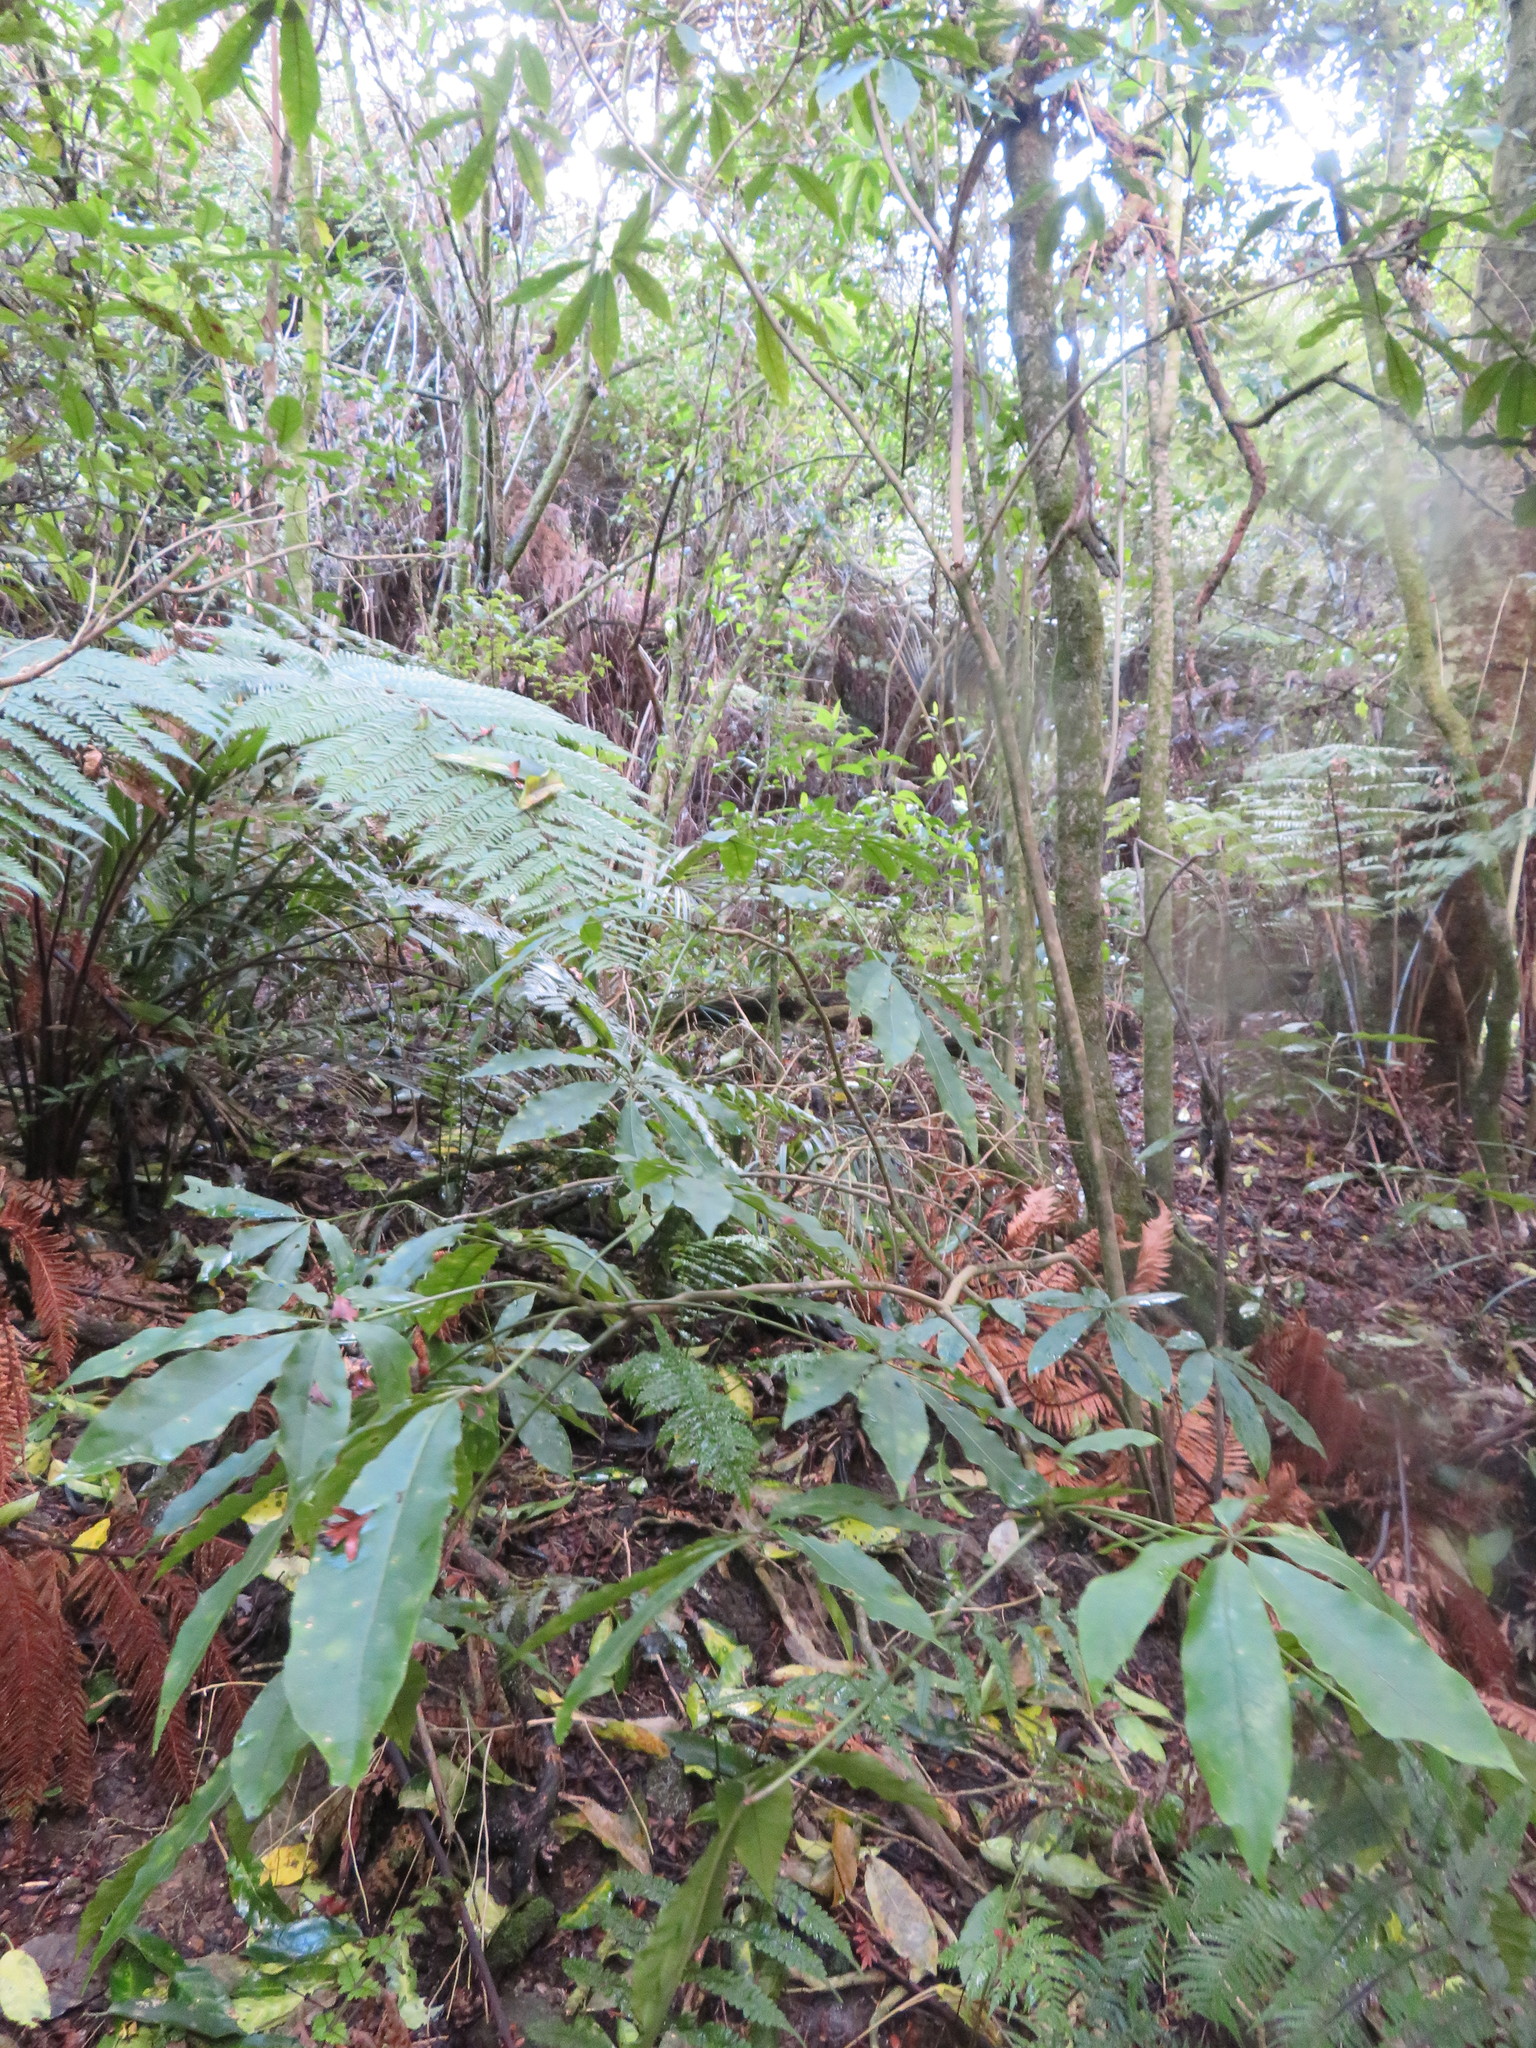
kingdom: Plantae
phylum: Tracheophyta
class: Magnoliopsida
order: Apiales
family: Araliaceae
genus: Schefflera
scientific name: Schefflera digitata
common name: Pate
